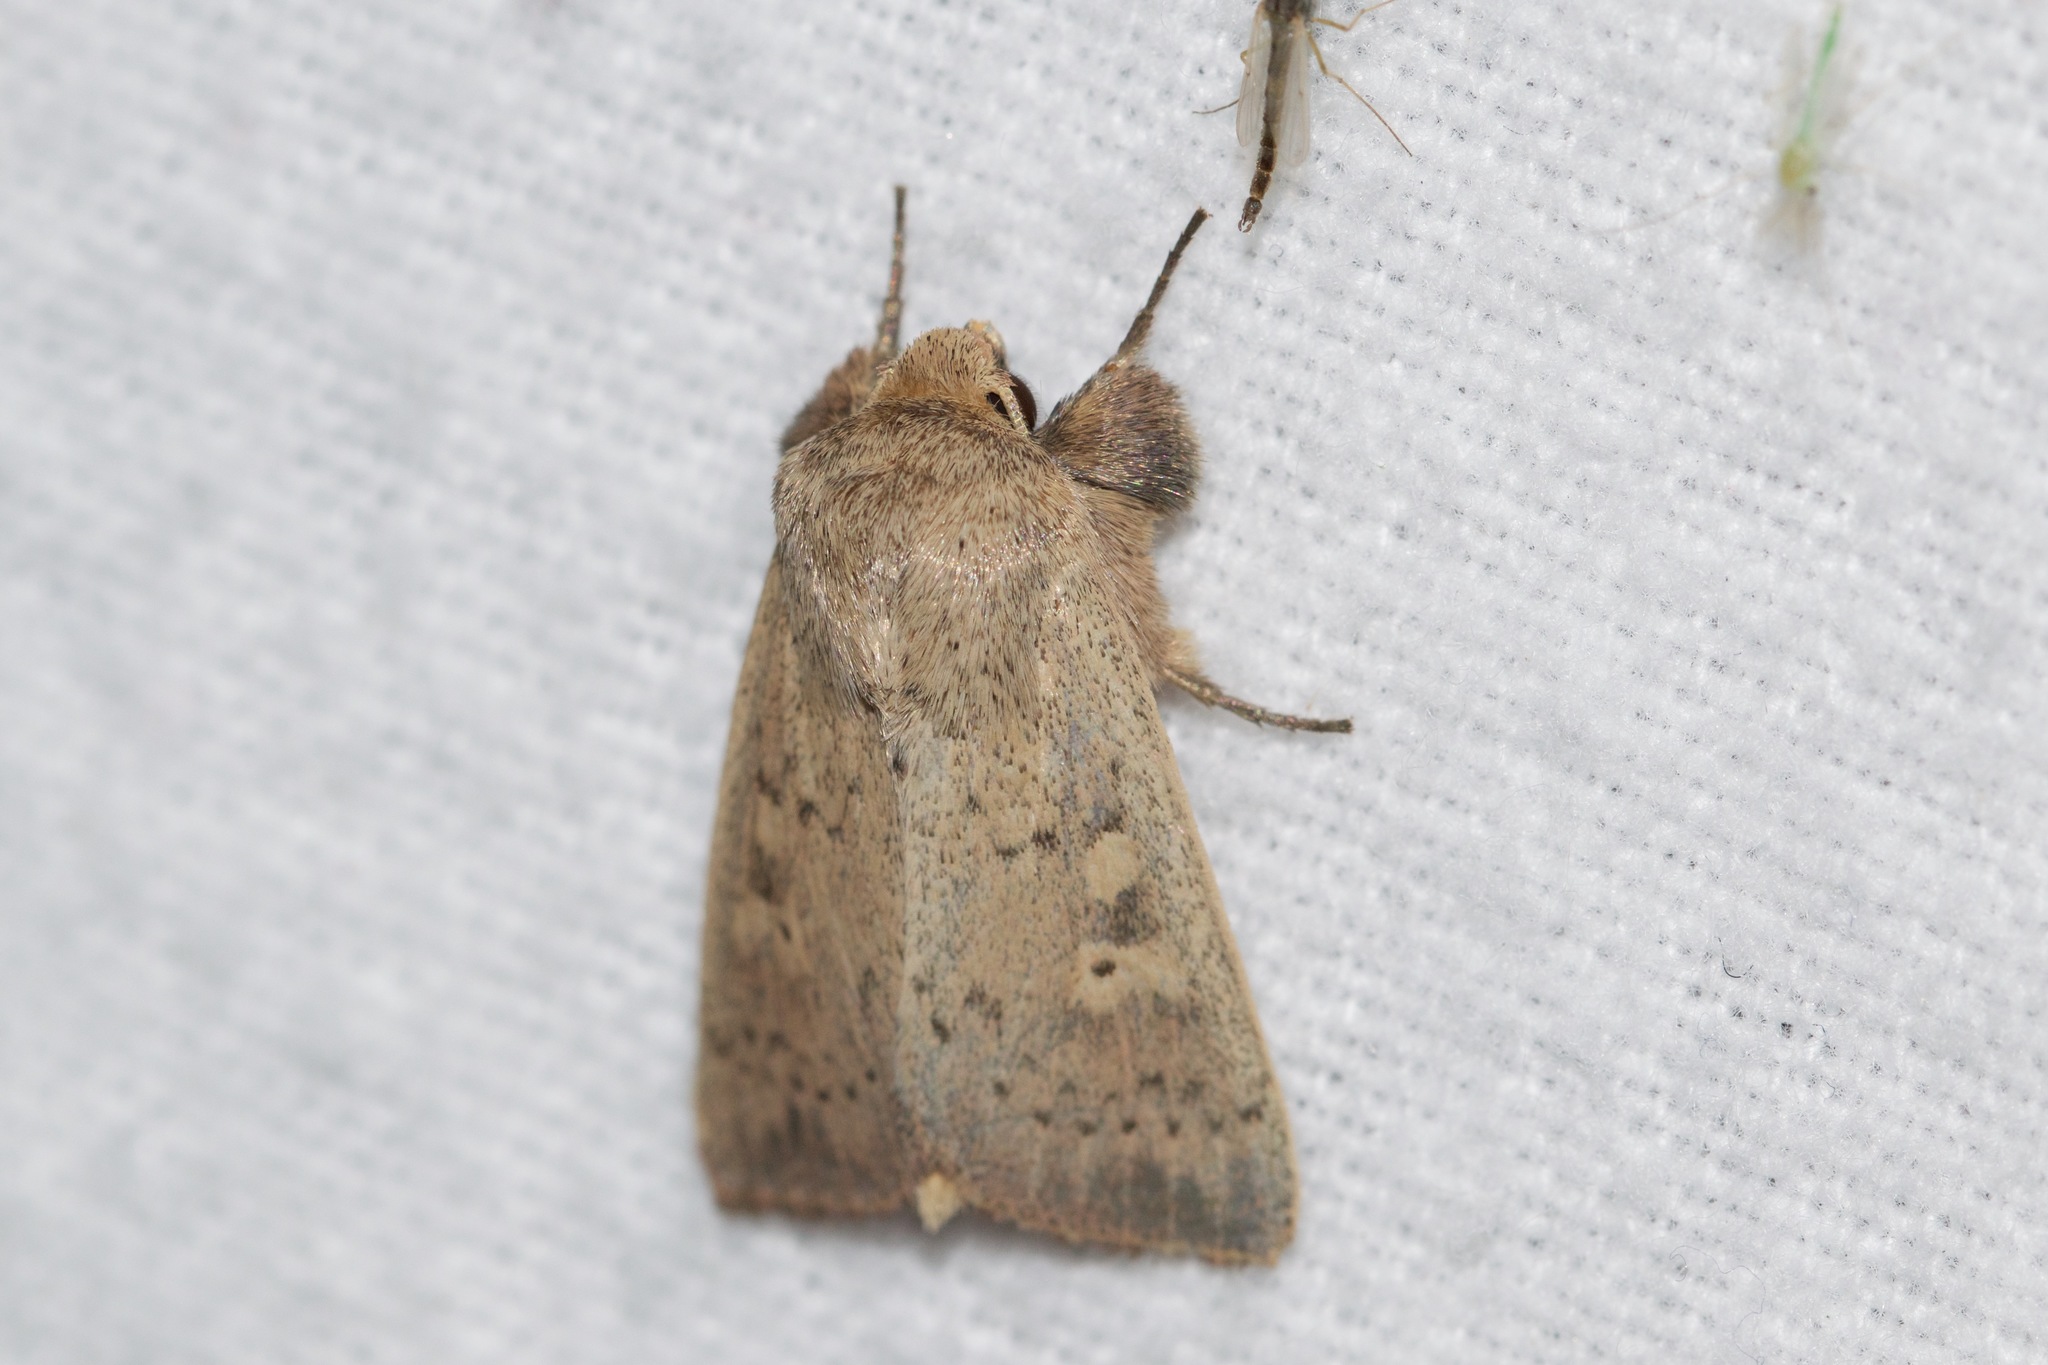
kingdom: Animalia
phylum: Arthropoda
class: Insecta
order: Lepidoptera
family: Noctuidae
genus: Leucania
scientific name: Leucania ursula
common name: Ursula wainscot
